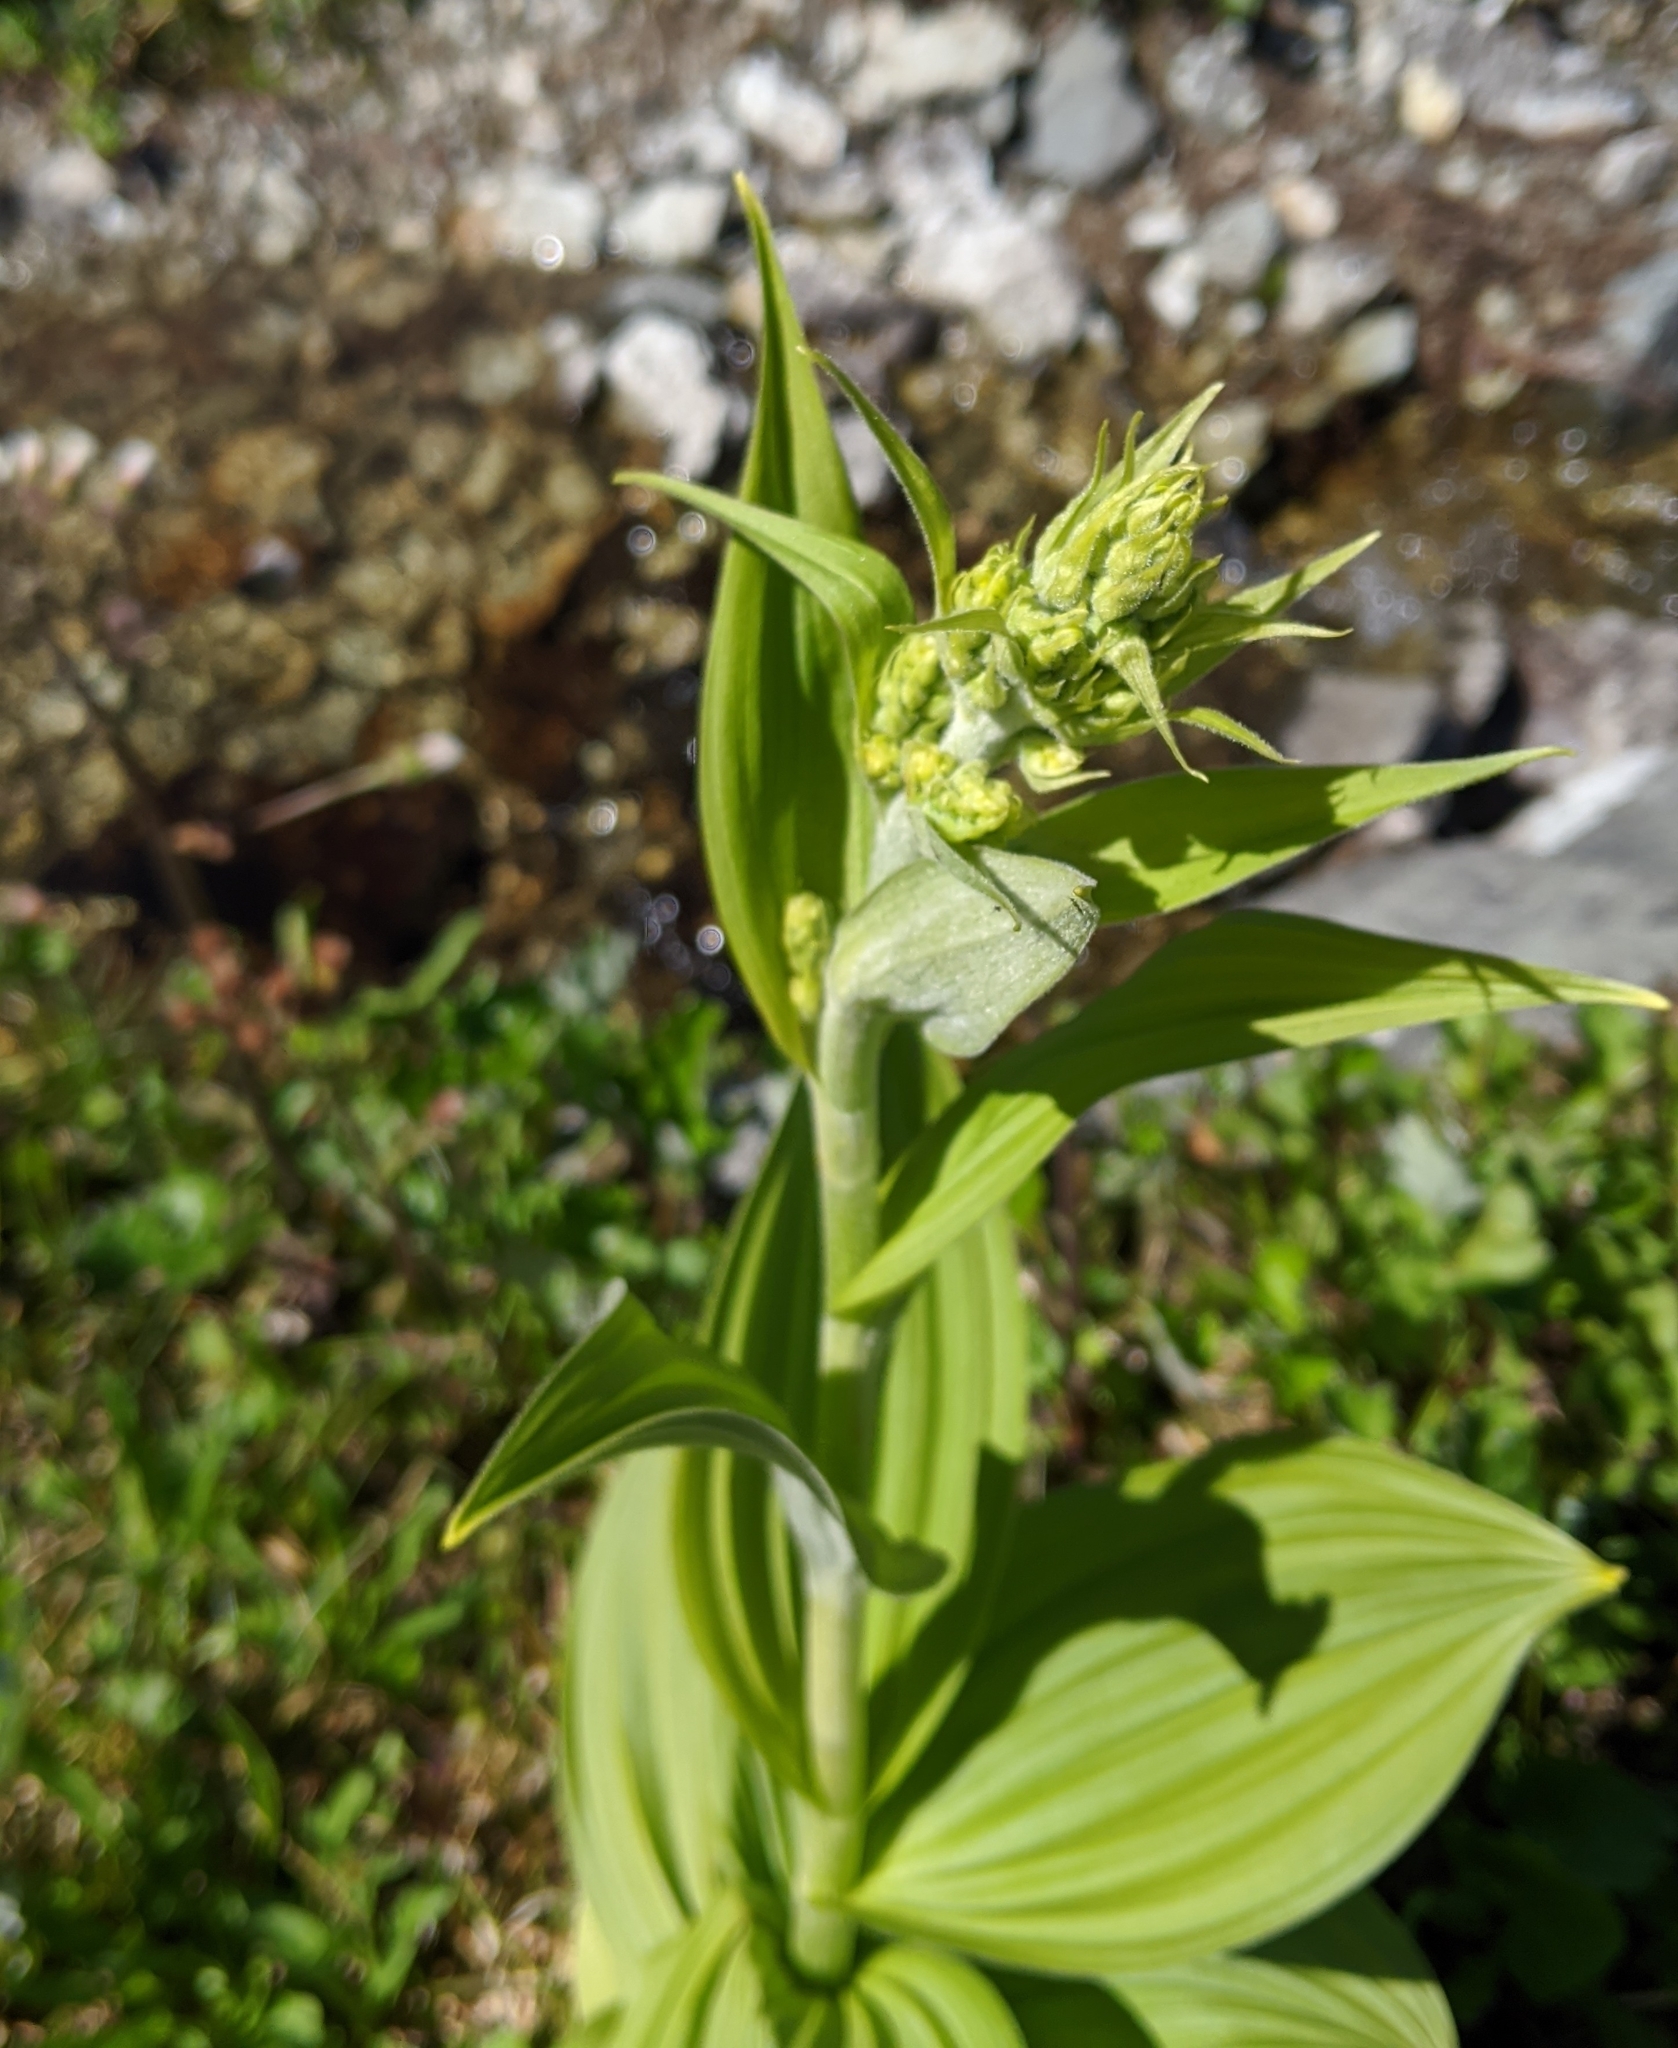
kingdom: Plantae
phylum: Tracheophyta
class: Liliopsida
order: Liliales
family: Melanthiaceae
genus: Veratrum
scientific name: Veratrum viride
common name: American false hellebore
